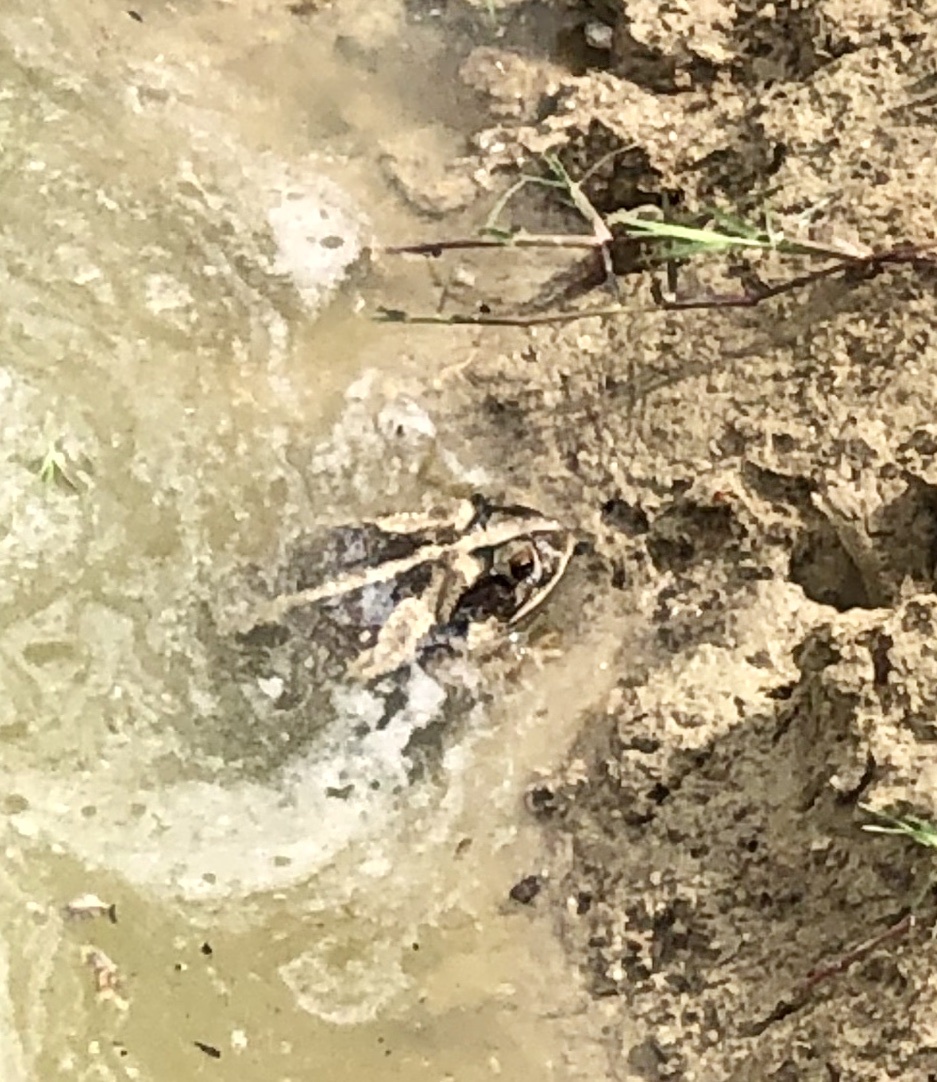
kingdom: Animalia
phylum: Chordata
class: Amphibia
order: Anura
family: Bufonidae
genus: Incilius
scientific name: Incilius nebulifer
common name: Gulf coast toad
